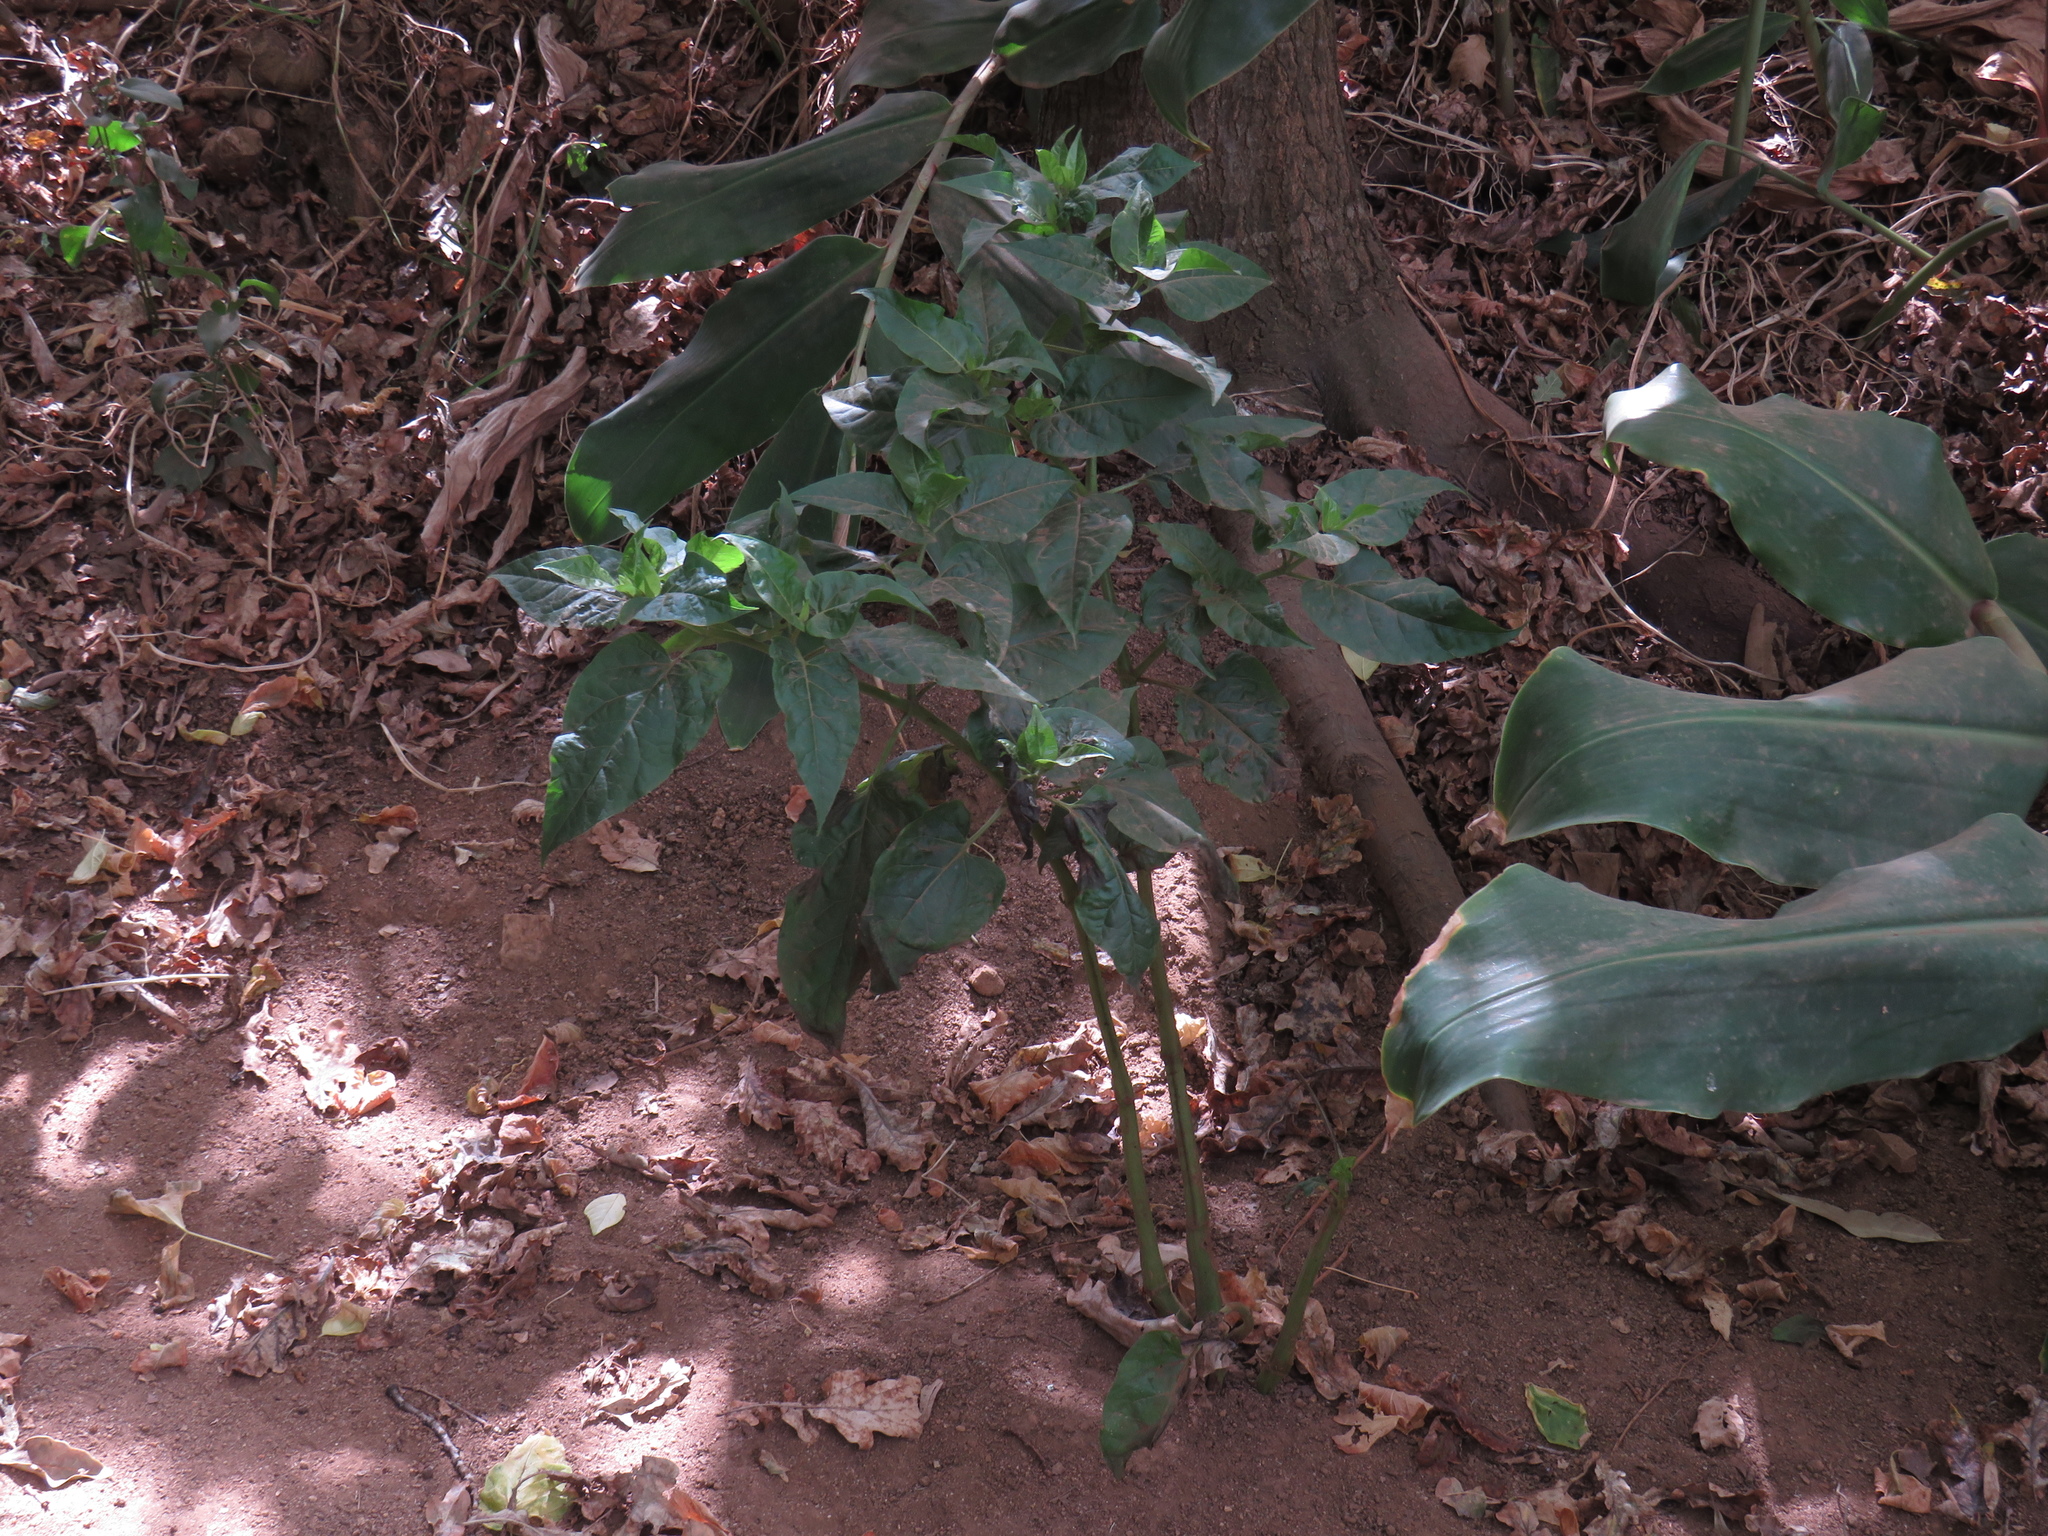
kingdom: Plantae
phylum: Tracheophyta
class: Magnoliopsida
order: Caryophyllales
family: Nyctaginaceae
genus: Mirabilis
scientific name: Mirabilis jalapa
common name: Marvel-of-peru
